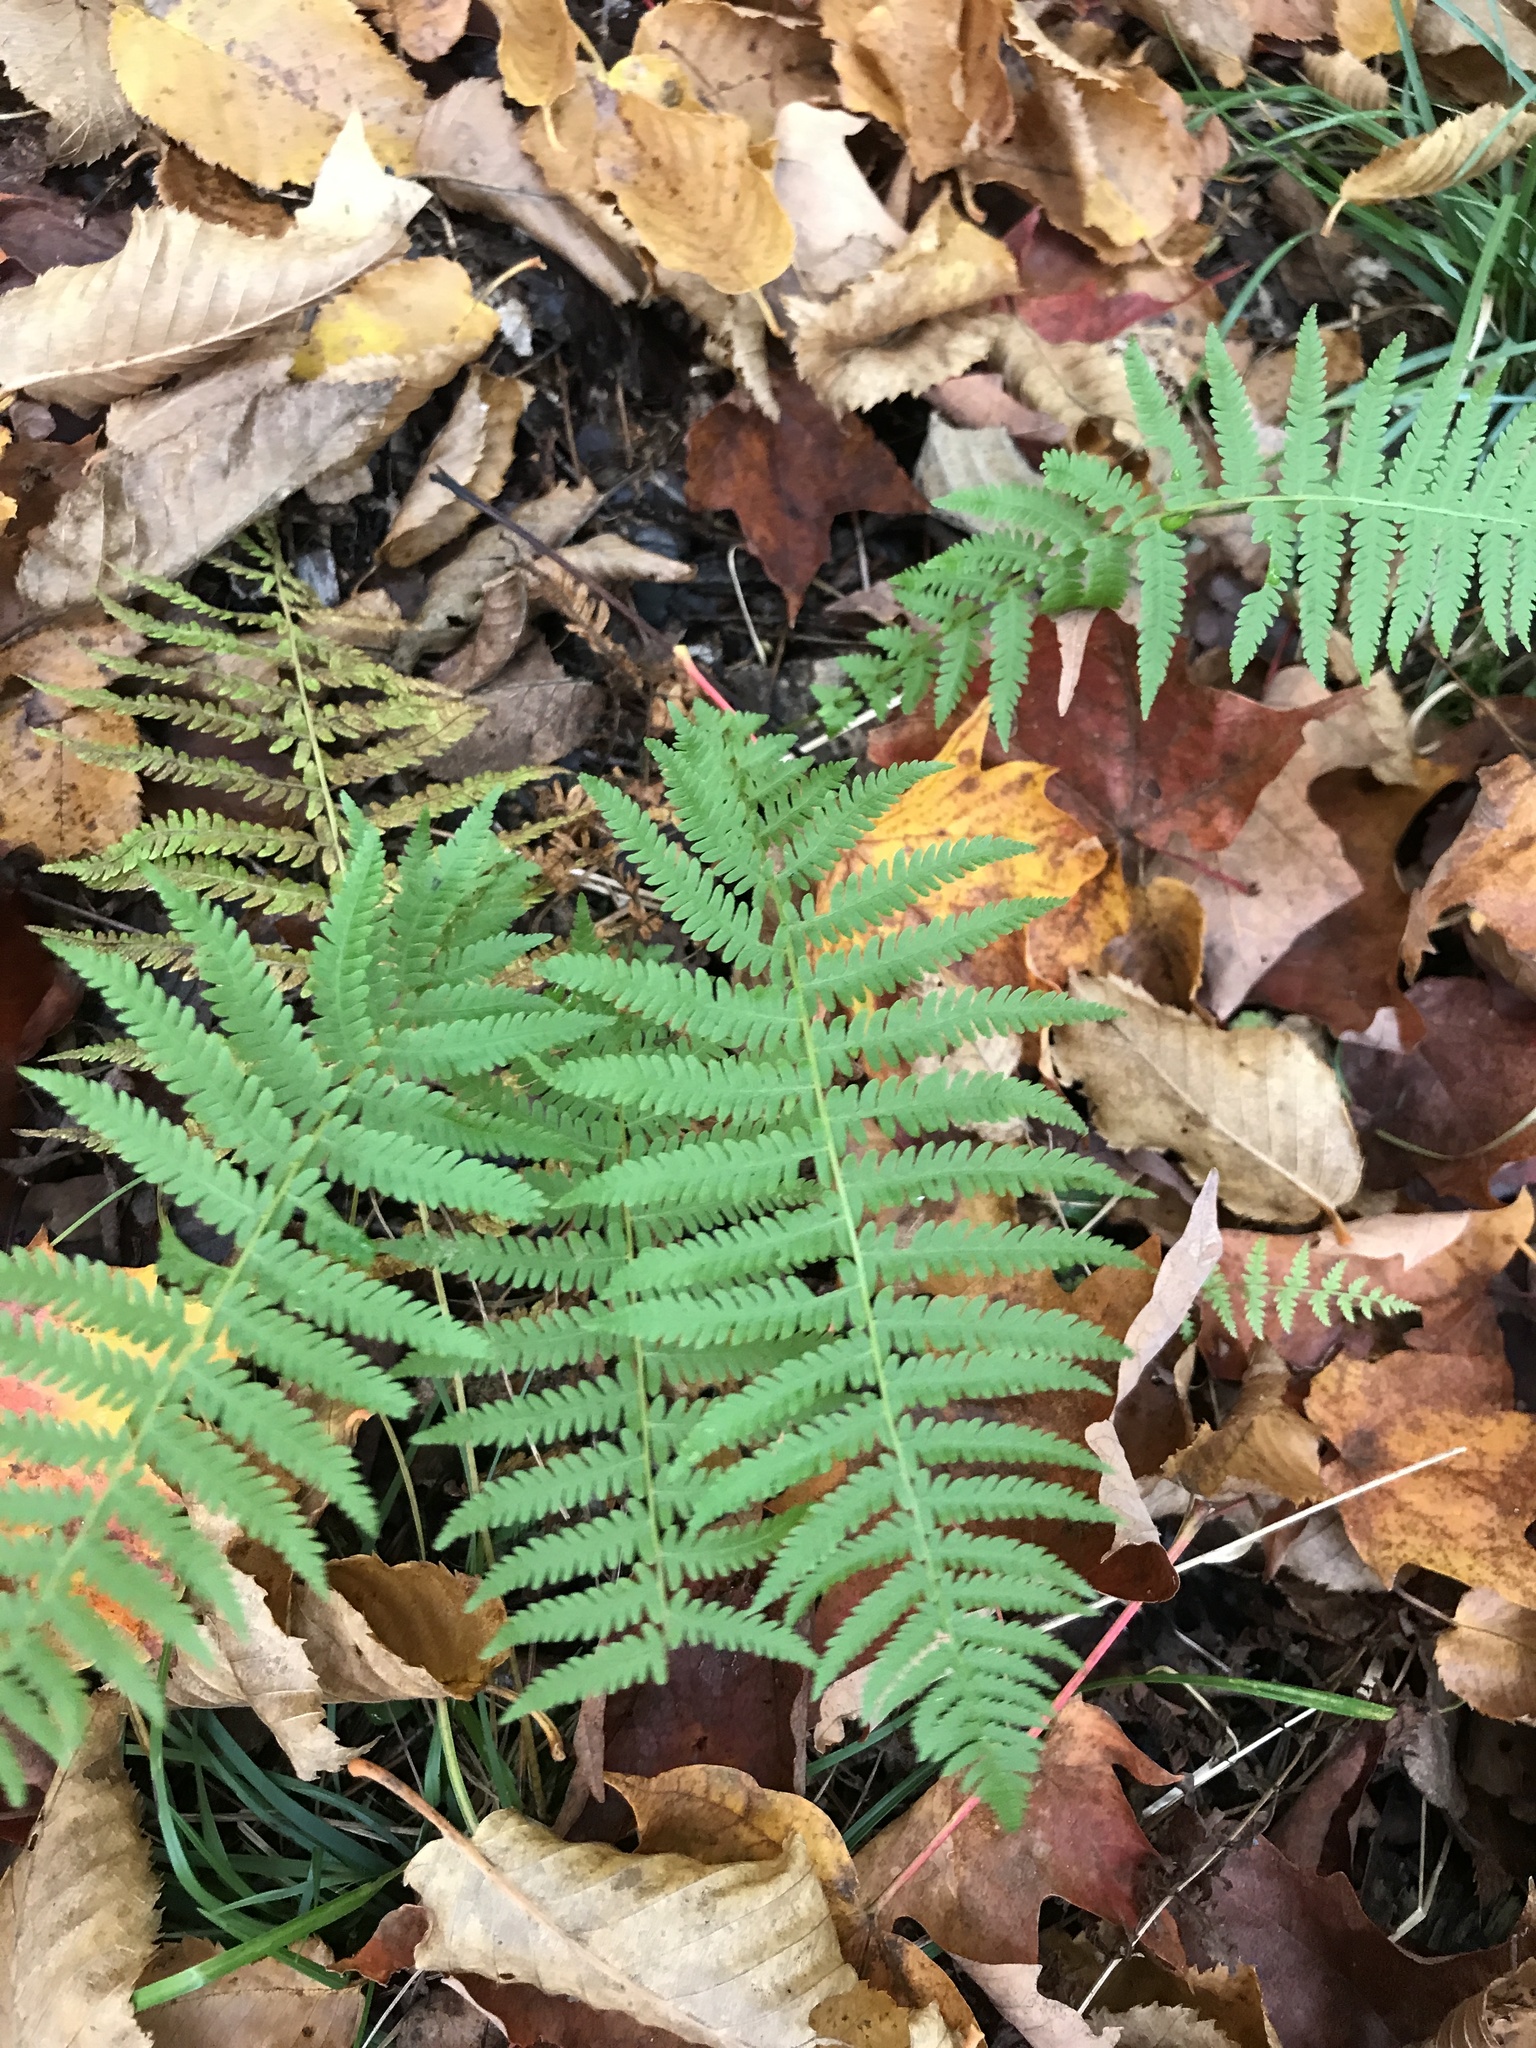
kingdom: Plantae
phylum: Tracheophyta
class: Polypodiopsida
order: Polypodiales
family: Thelypteridaceae
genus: Amauropelta
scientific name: Amauropelta noveboracensis
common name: New york fern
